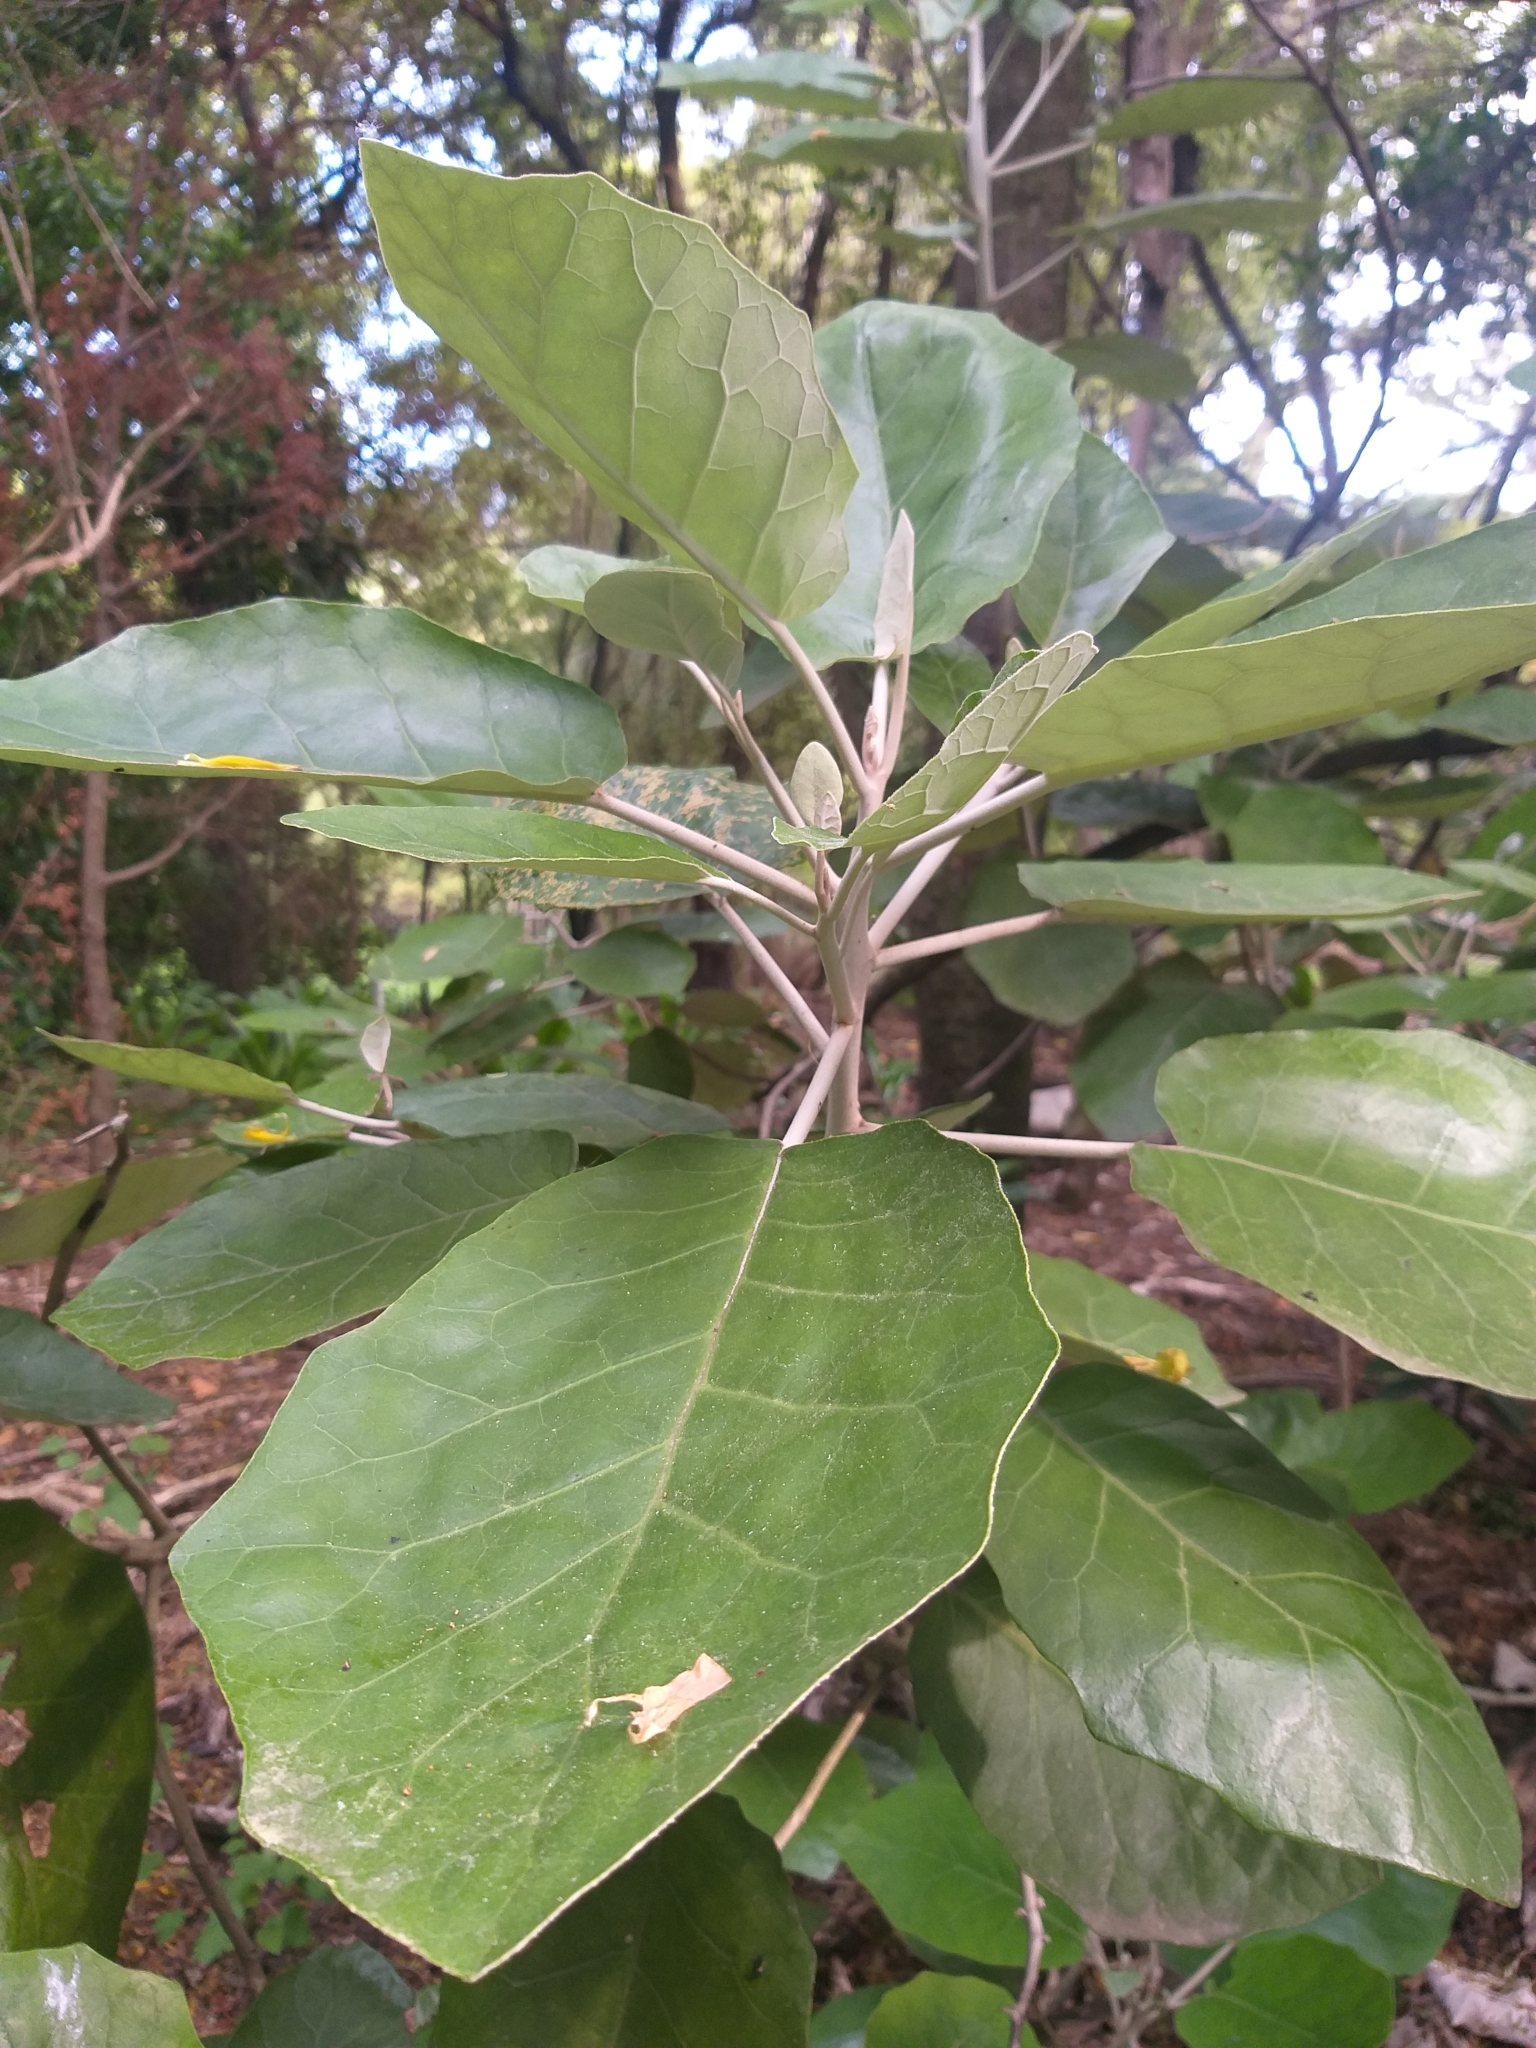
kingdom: Plantae
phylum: Tracheophyta
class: Magnoliopsida
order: Asterales
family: Asteraceae
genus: Brachyglottis
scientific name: Brachyglottis repanda
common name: Hedge ragwort
